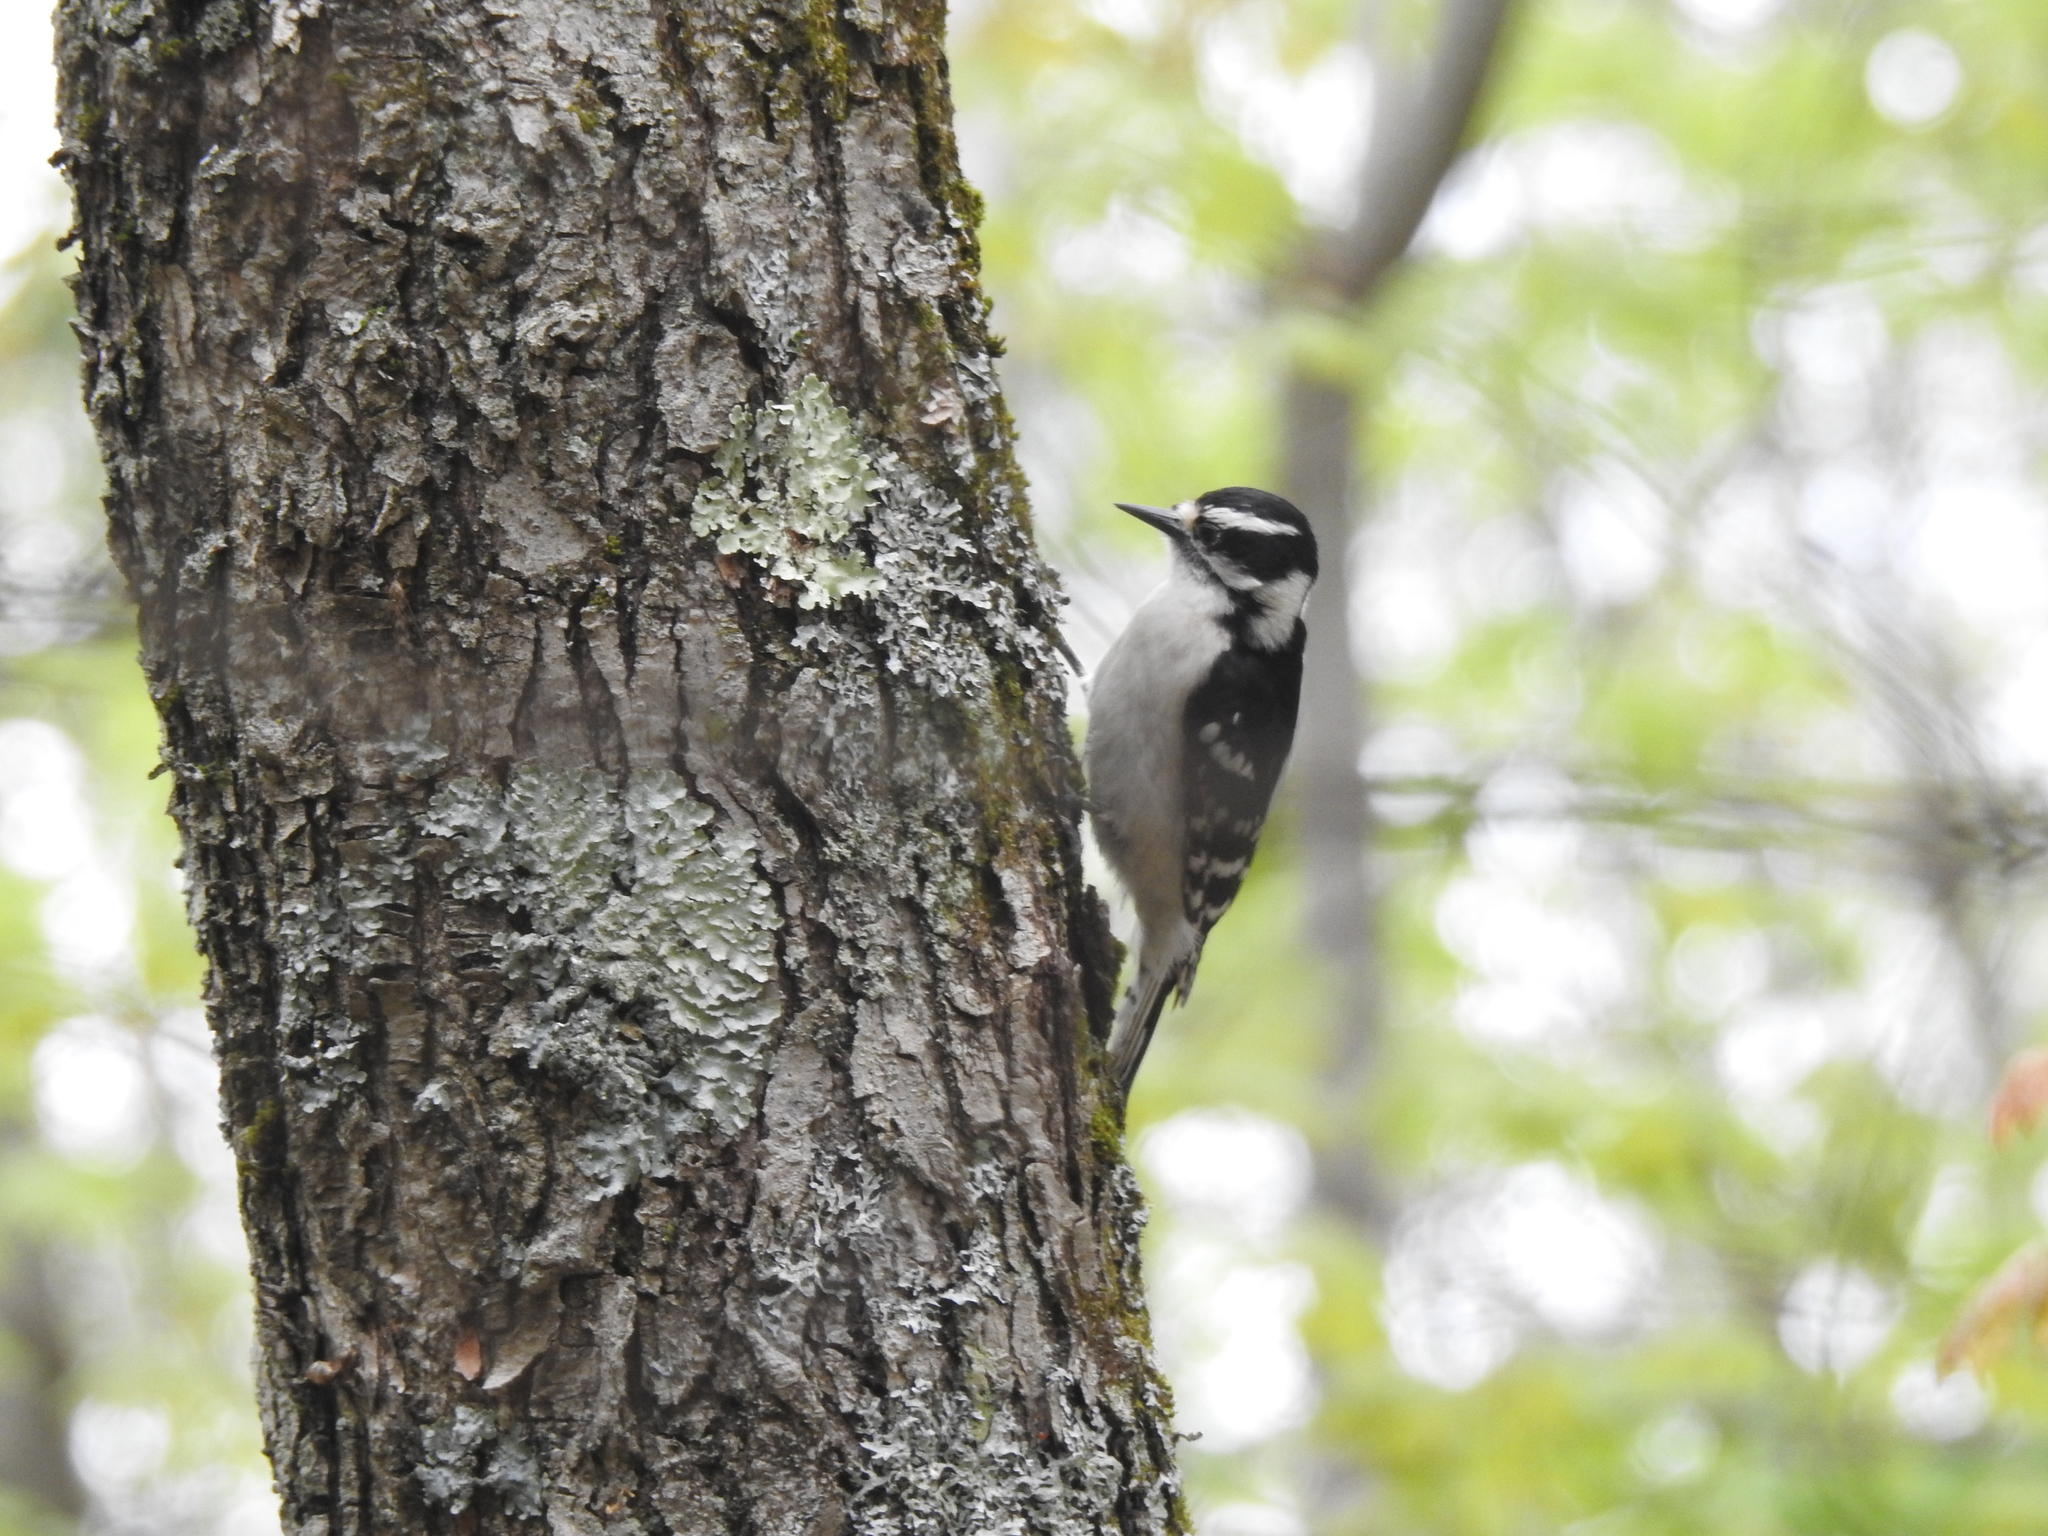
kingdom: Animalia
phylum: Chordata
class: Aves
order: Piciformes
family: Picidae
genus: Dryobates
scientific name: Dryobates pubescens
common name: Downy woodpecker
